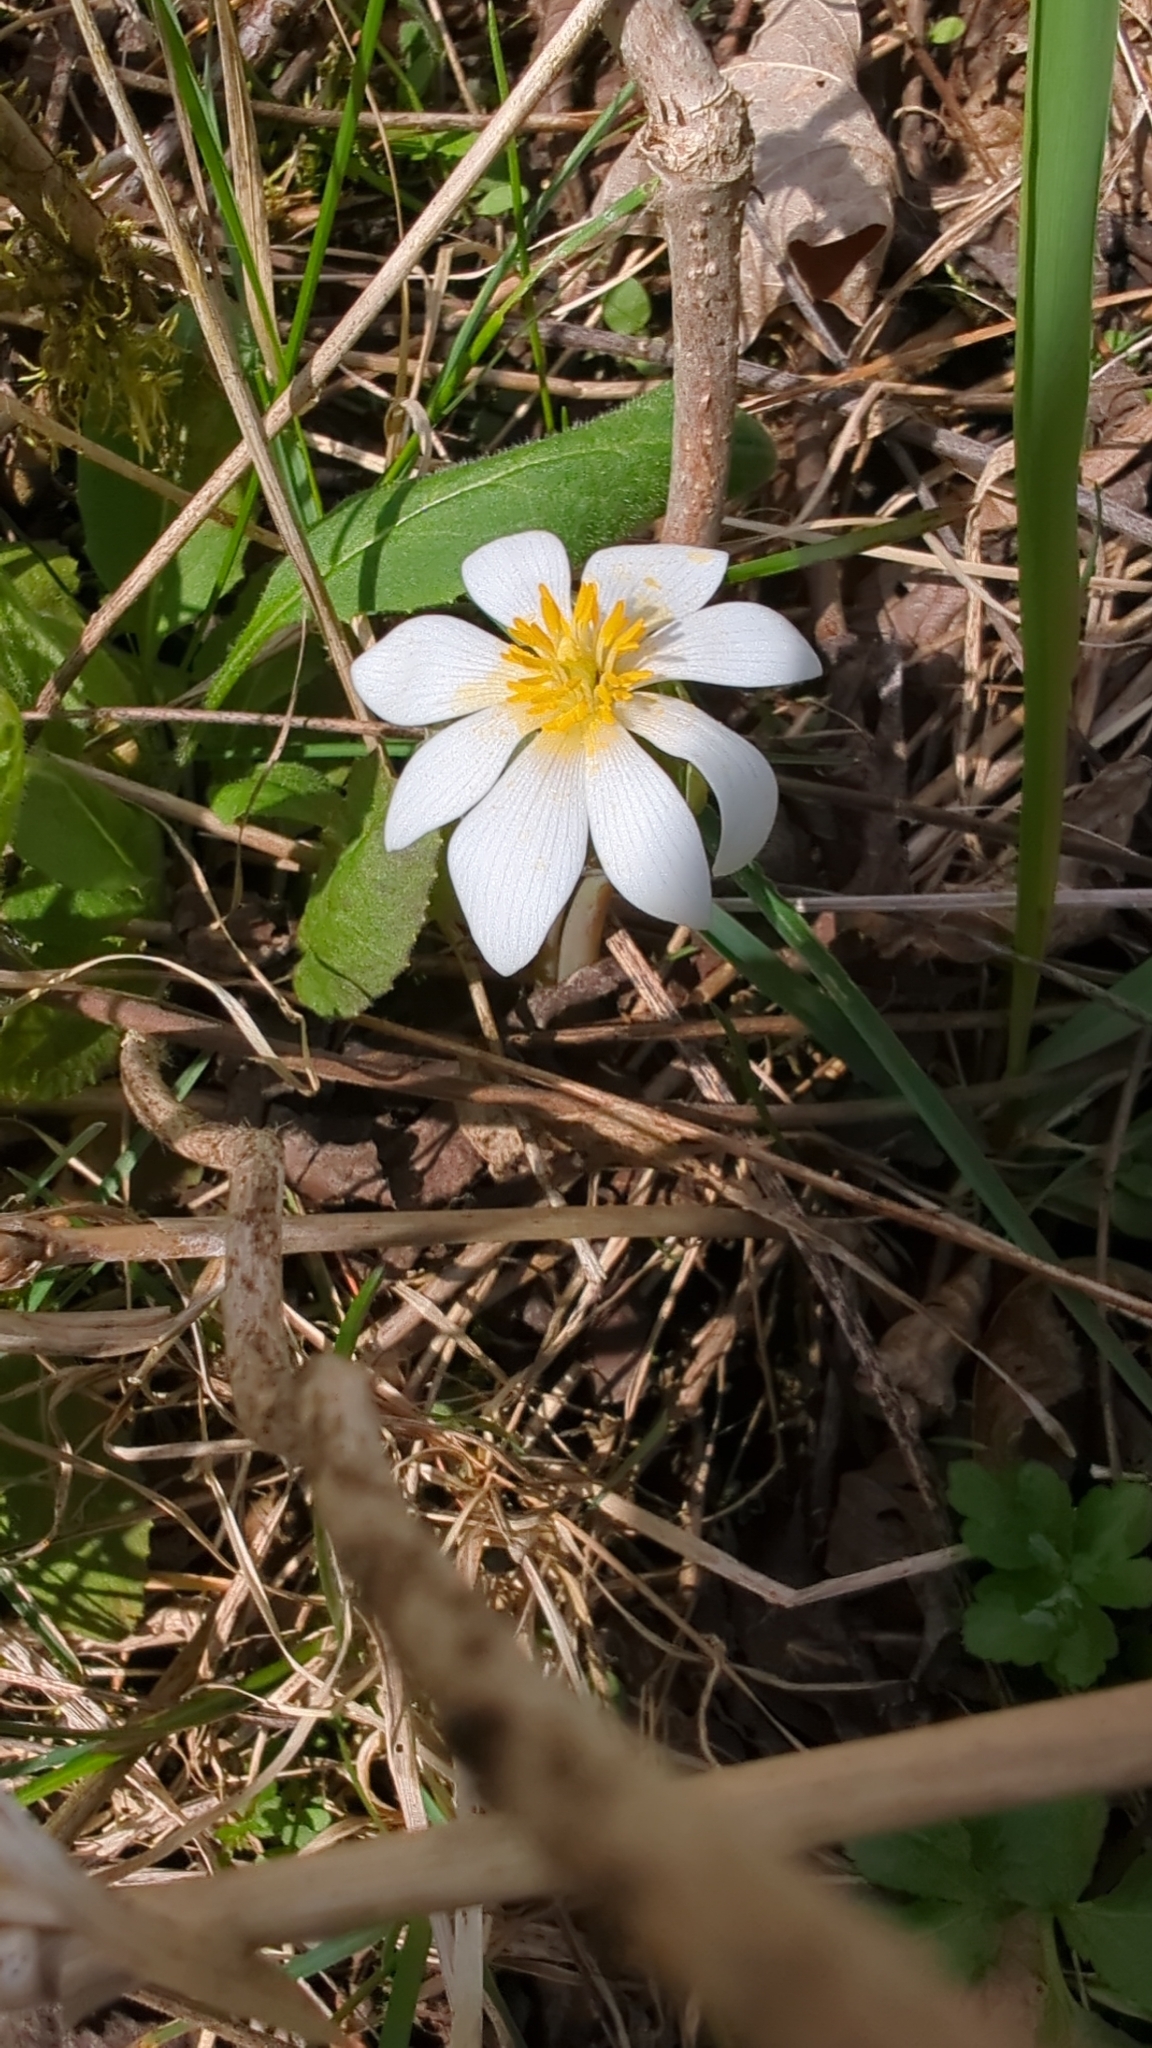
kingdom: Plantae
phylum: Tracheophyta
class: Magnoliopsida
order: Ranunculales
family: Papaveraceae
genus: Sanguinaria
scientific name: Sanguinaria canadensis
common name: Bloodroot
